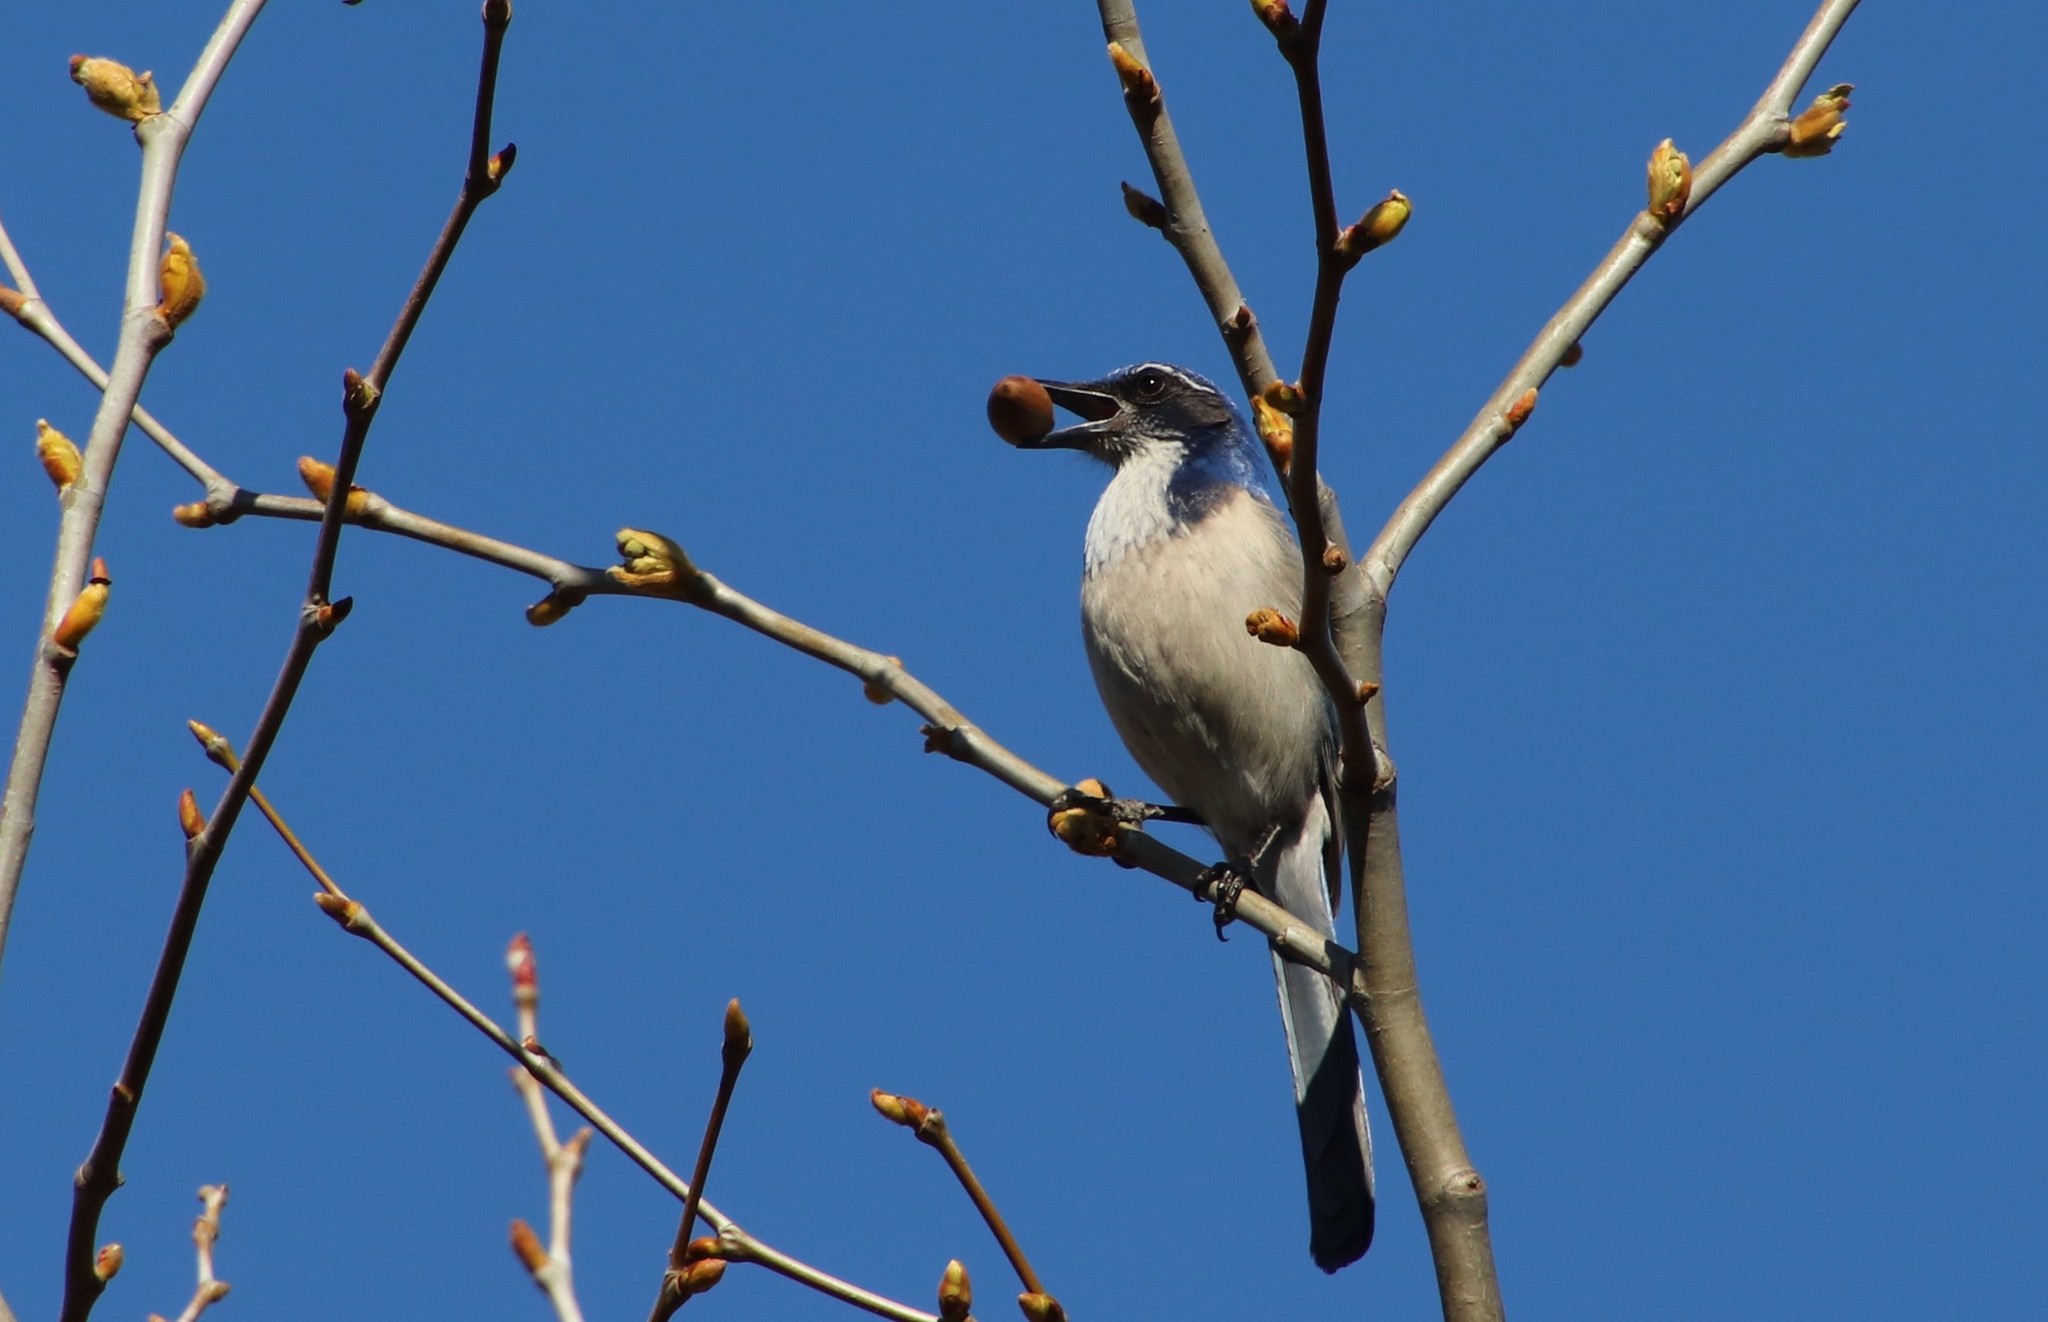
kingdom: Animalia
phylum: Chordata
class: Aves
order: Passeriformes
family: Corvidae
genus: Aphelocoma
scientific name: Aphelocoma californica
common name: California scrub-jay
